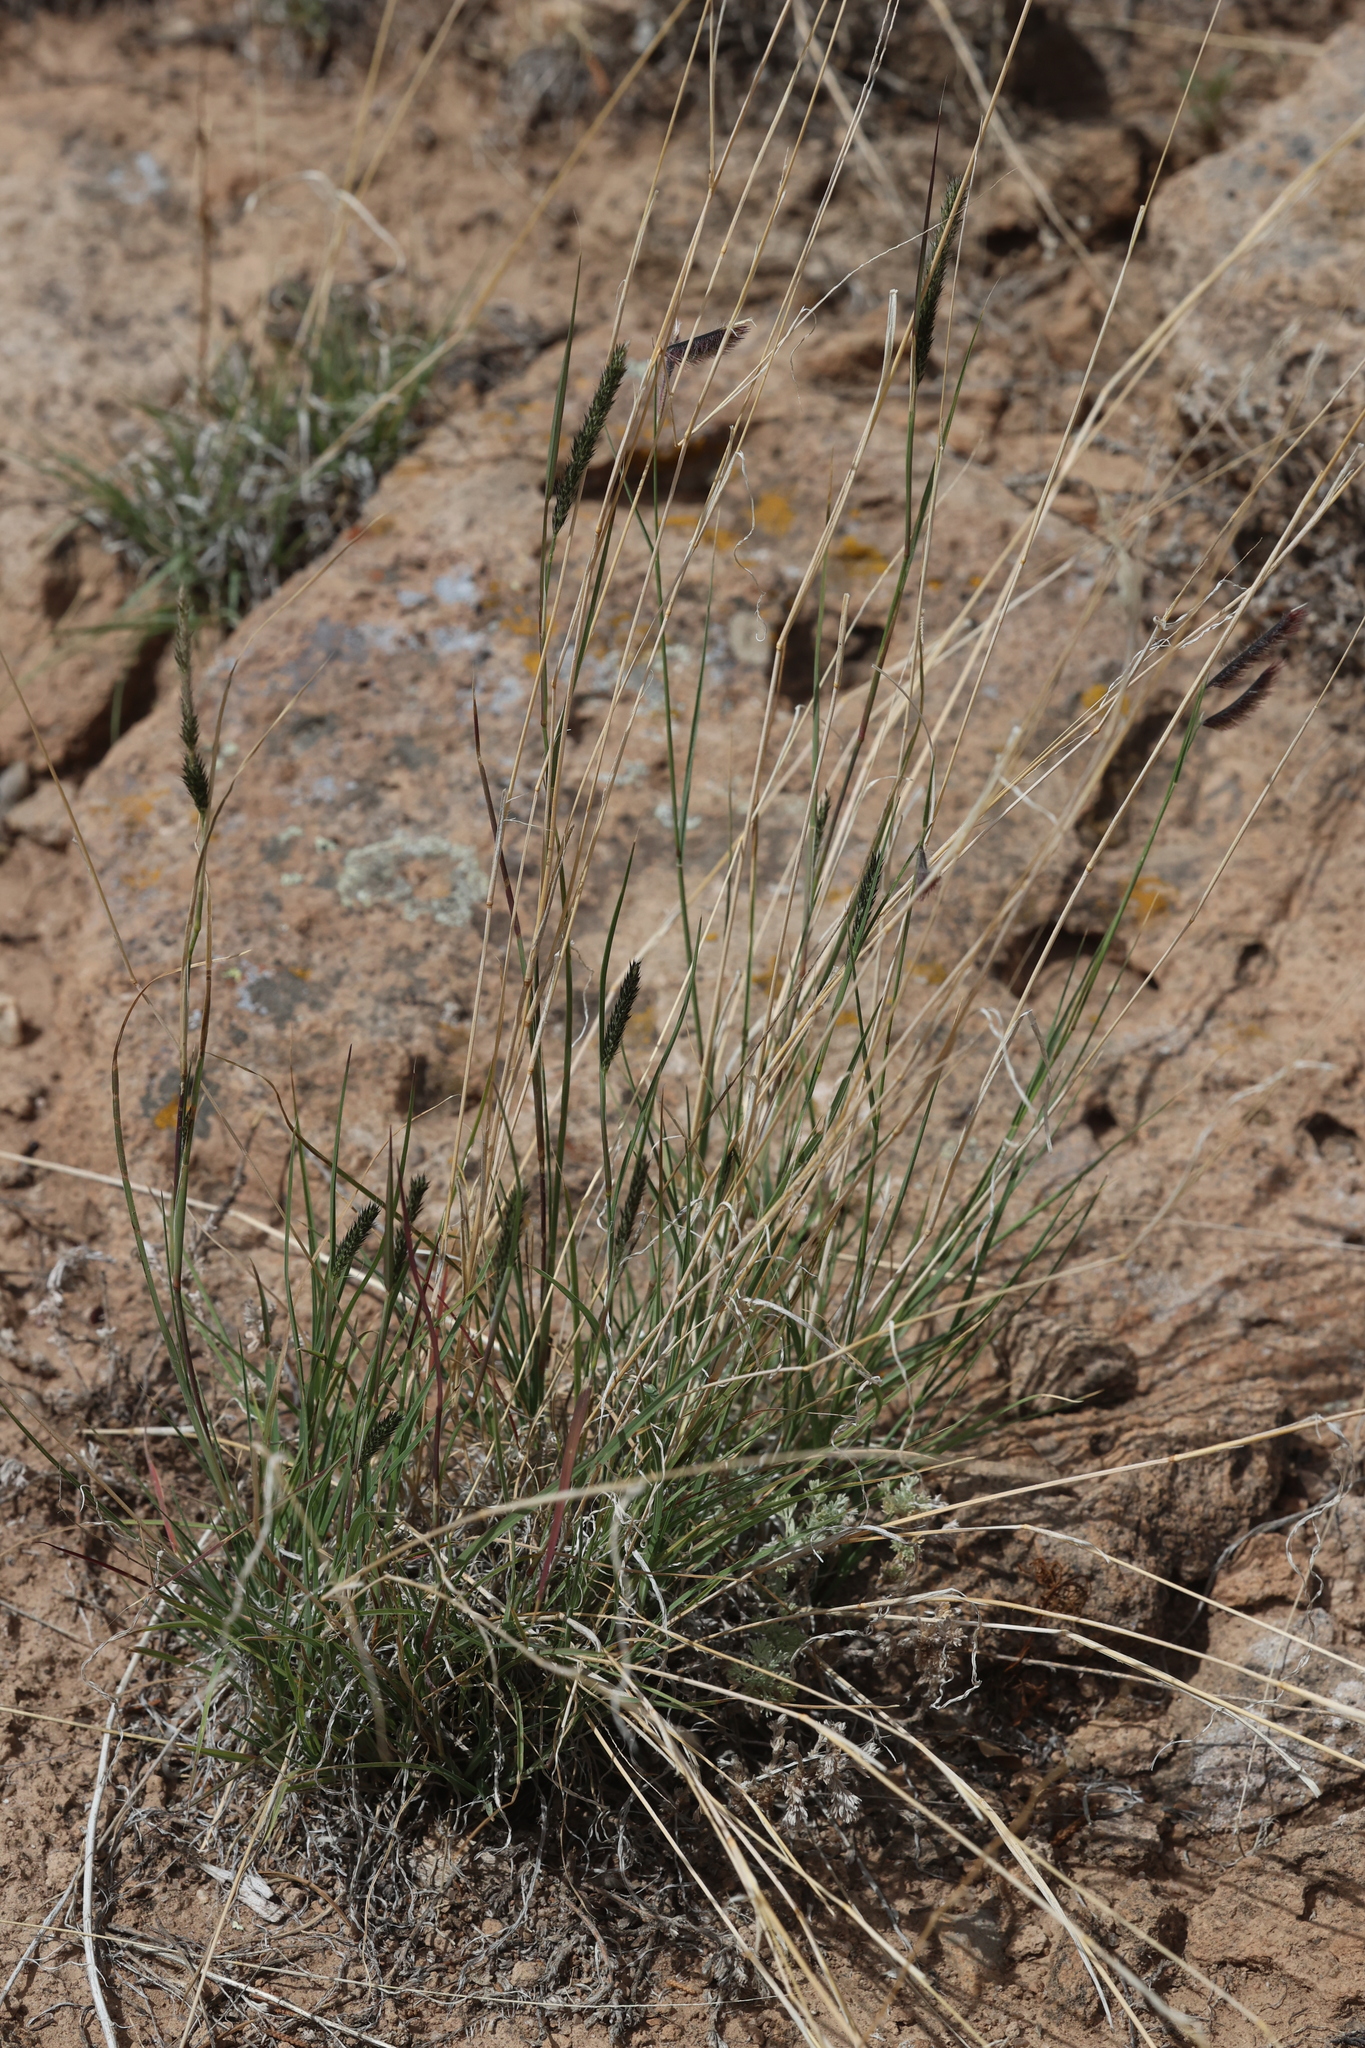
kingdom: Plantae
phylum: Tracheophyta
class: Liliopsida
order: Poales
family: Poaceae
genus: Muhlenbergia
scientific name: Muhlenbergia alopecuroides
